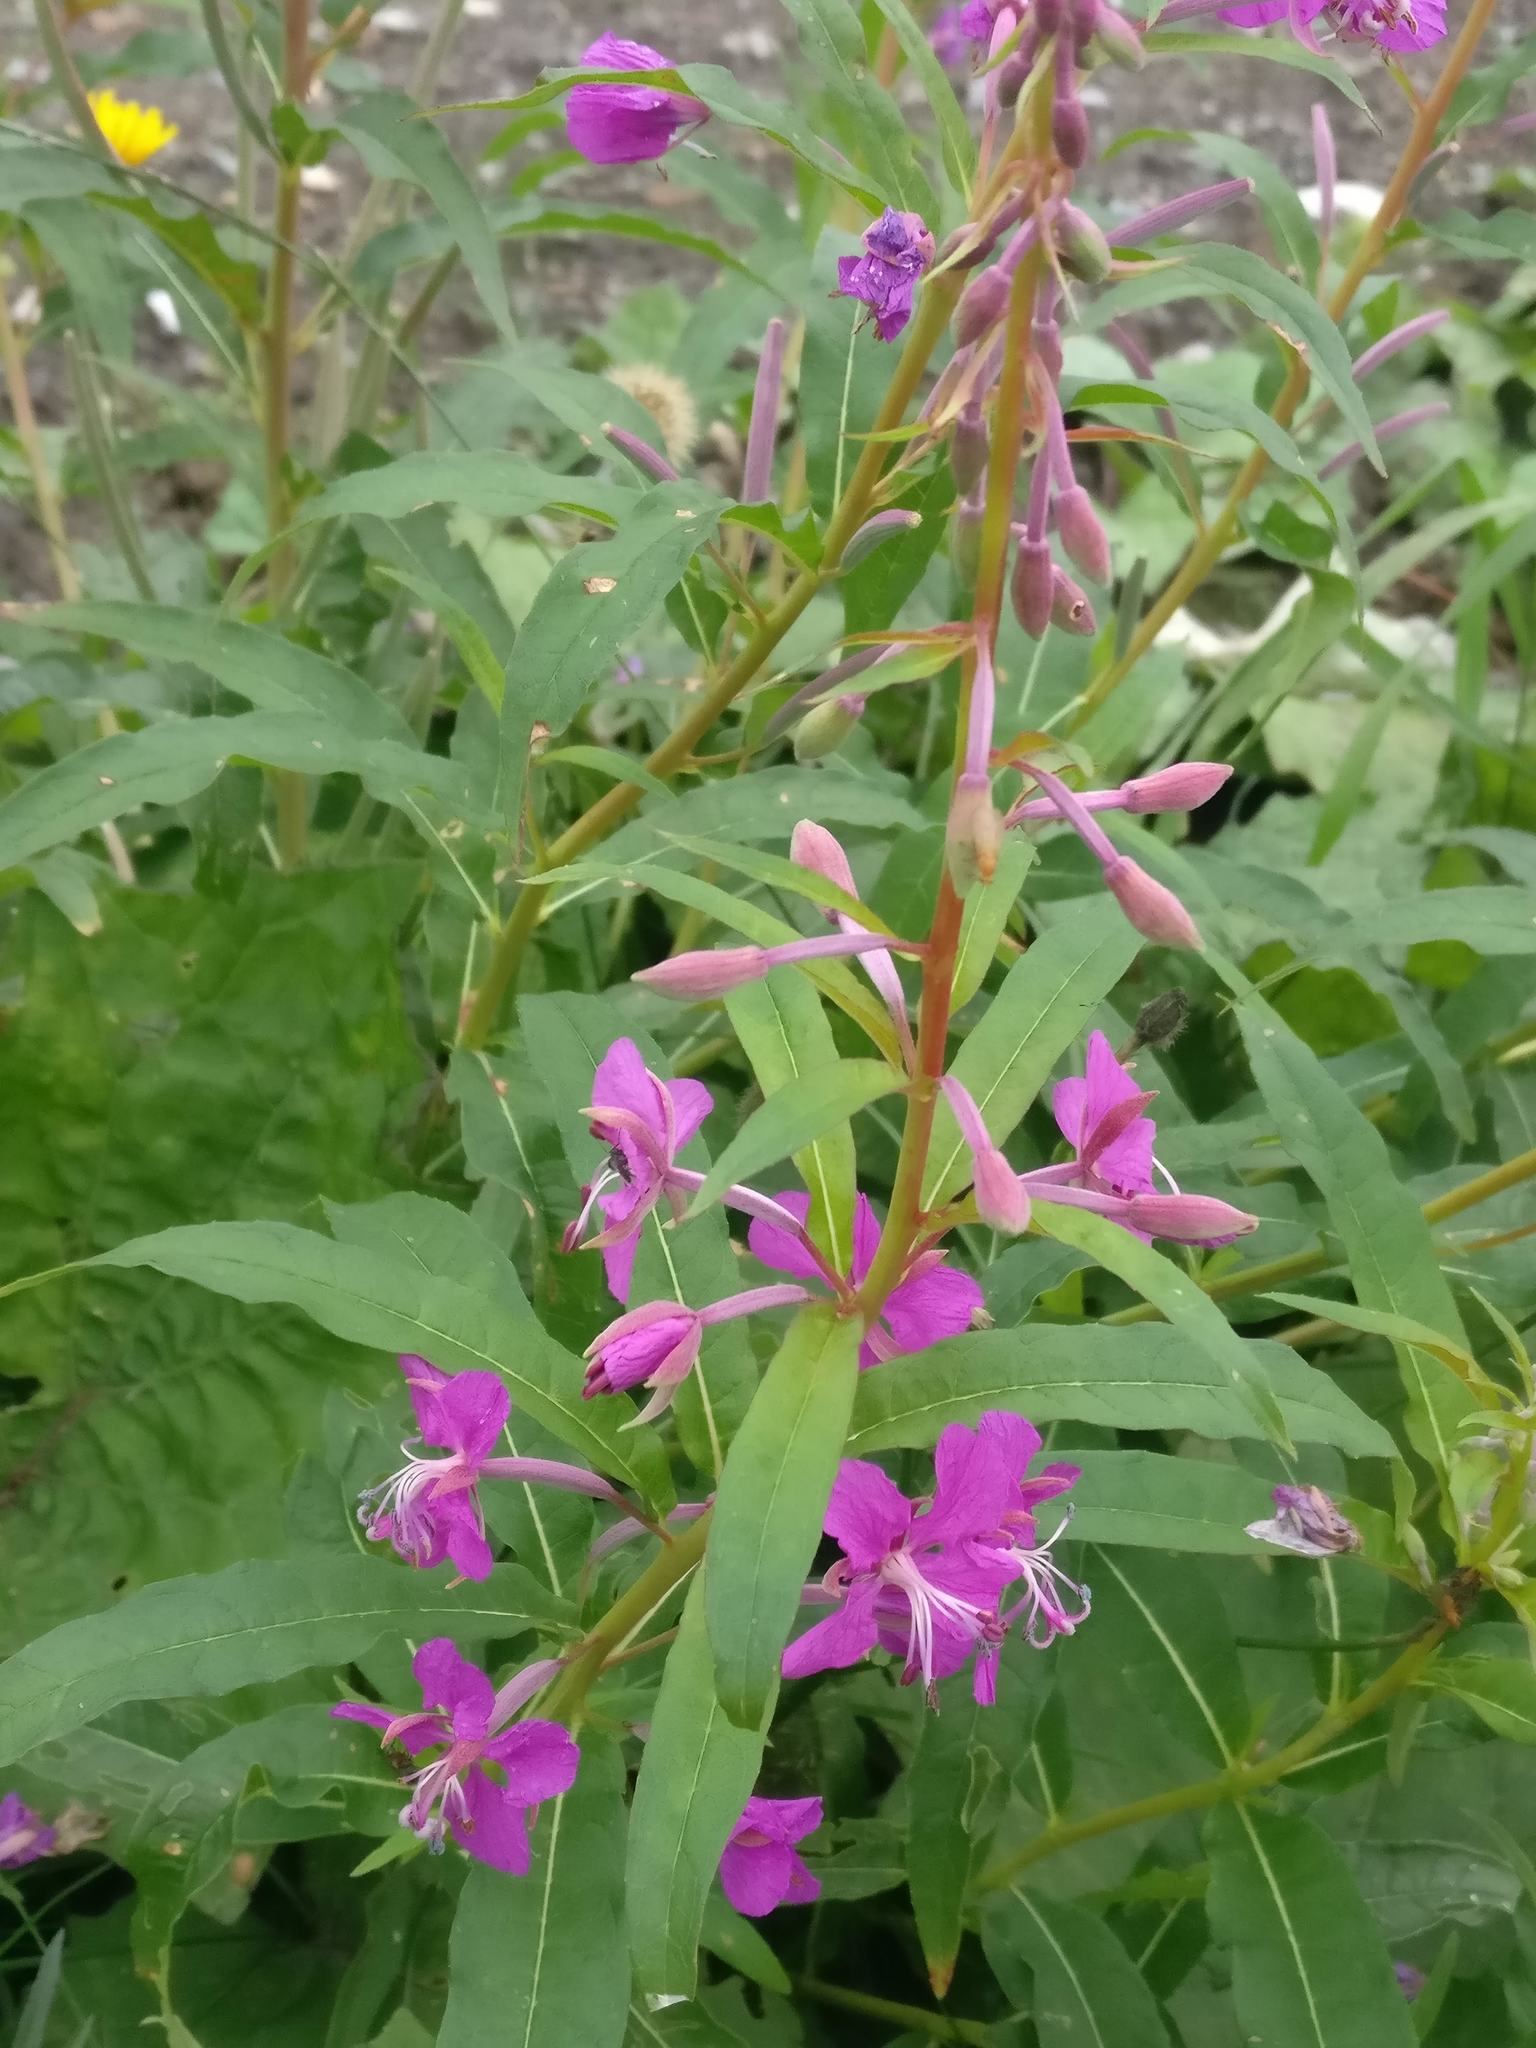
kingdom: Plantae
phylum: Tracheophyta
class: Magnoliopsida
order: Myrtales
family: Onagraceae
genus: Chamaenerion
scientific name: Chamaenerion angustifolium
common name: Fireweed
